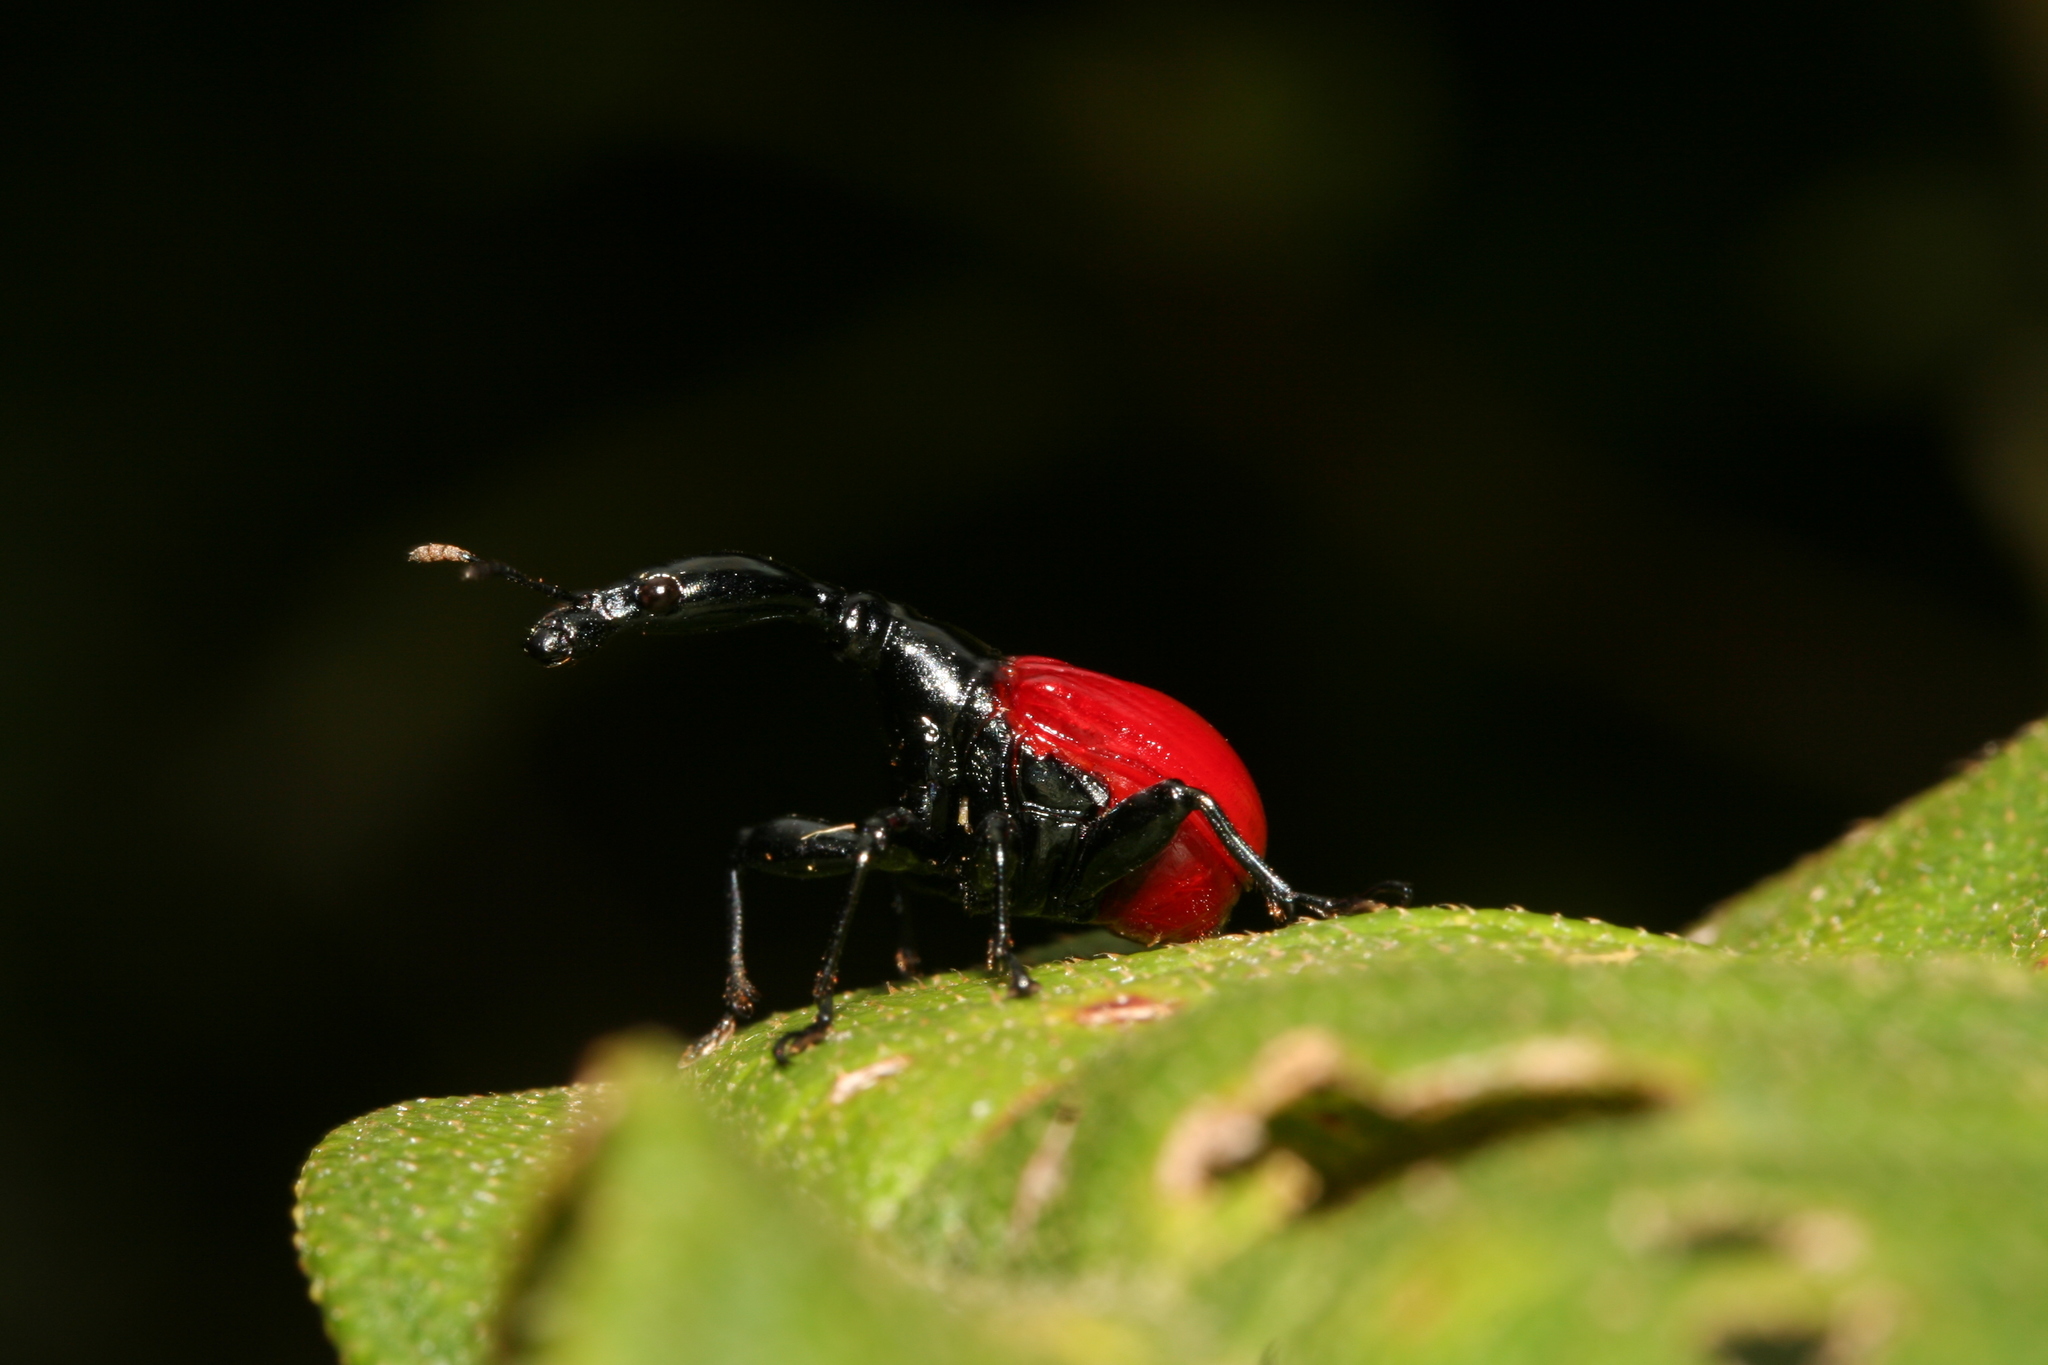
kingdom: Animalia
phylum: Arthropoda
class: Insecta
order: Coleoptera
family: Attelabidae
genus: Trachelophorus
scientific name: Trachelophorus giraffa
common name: Giraffe weevil
